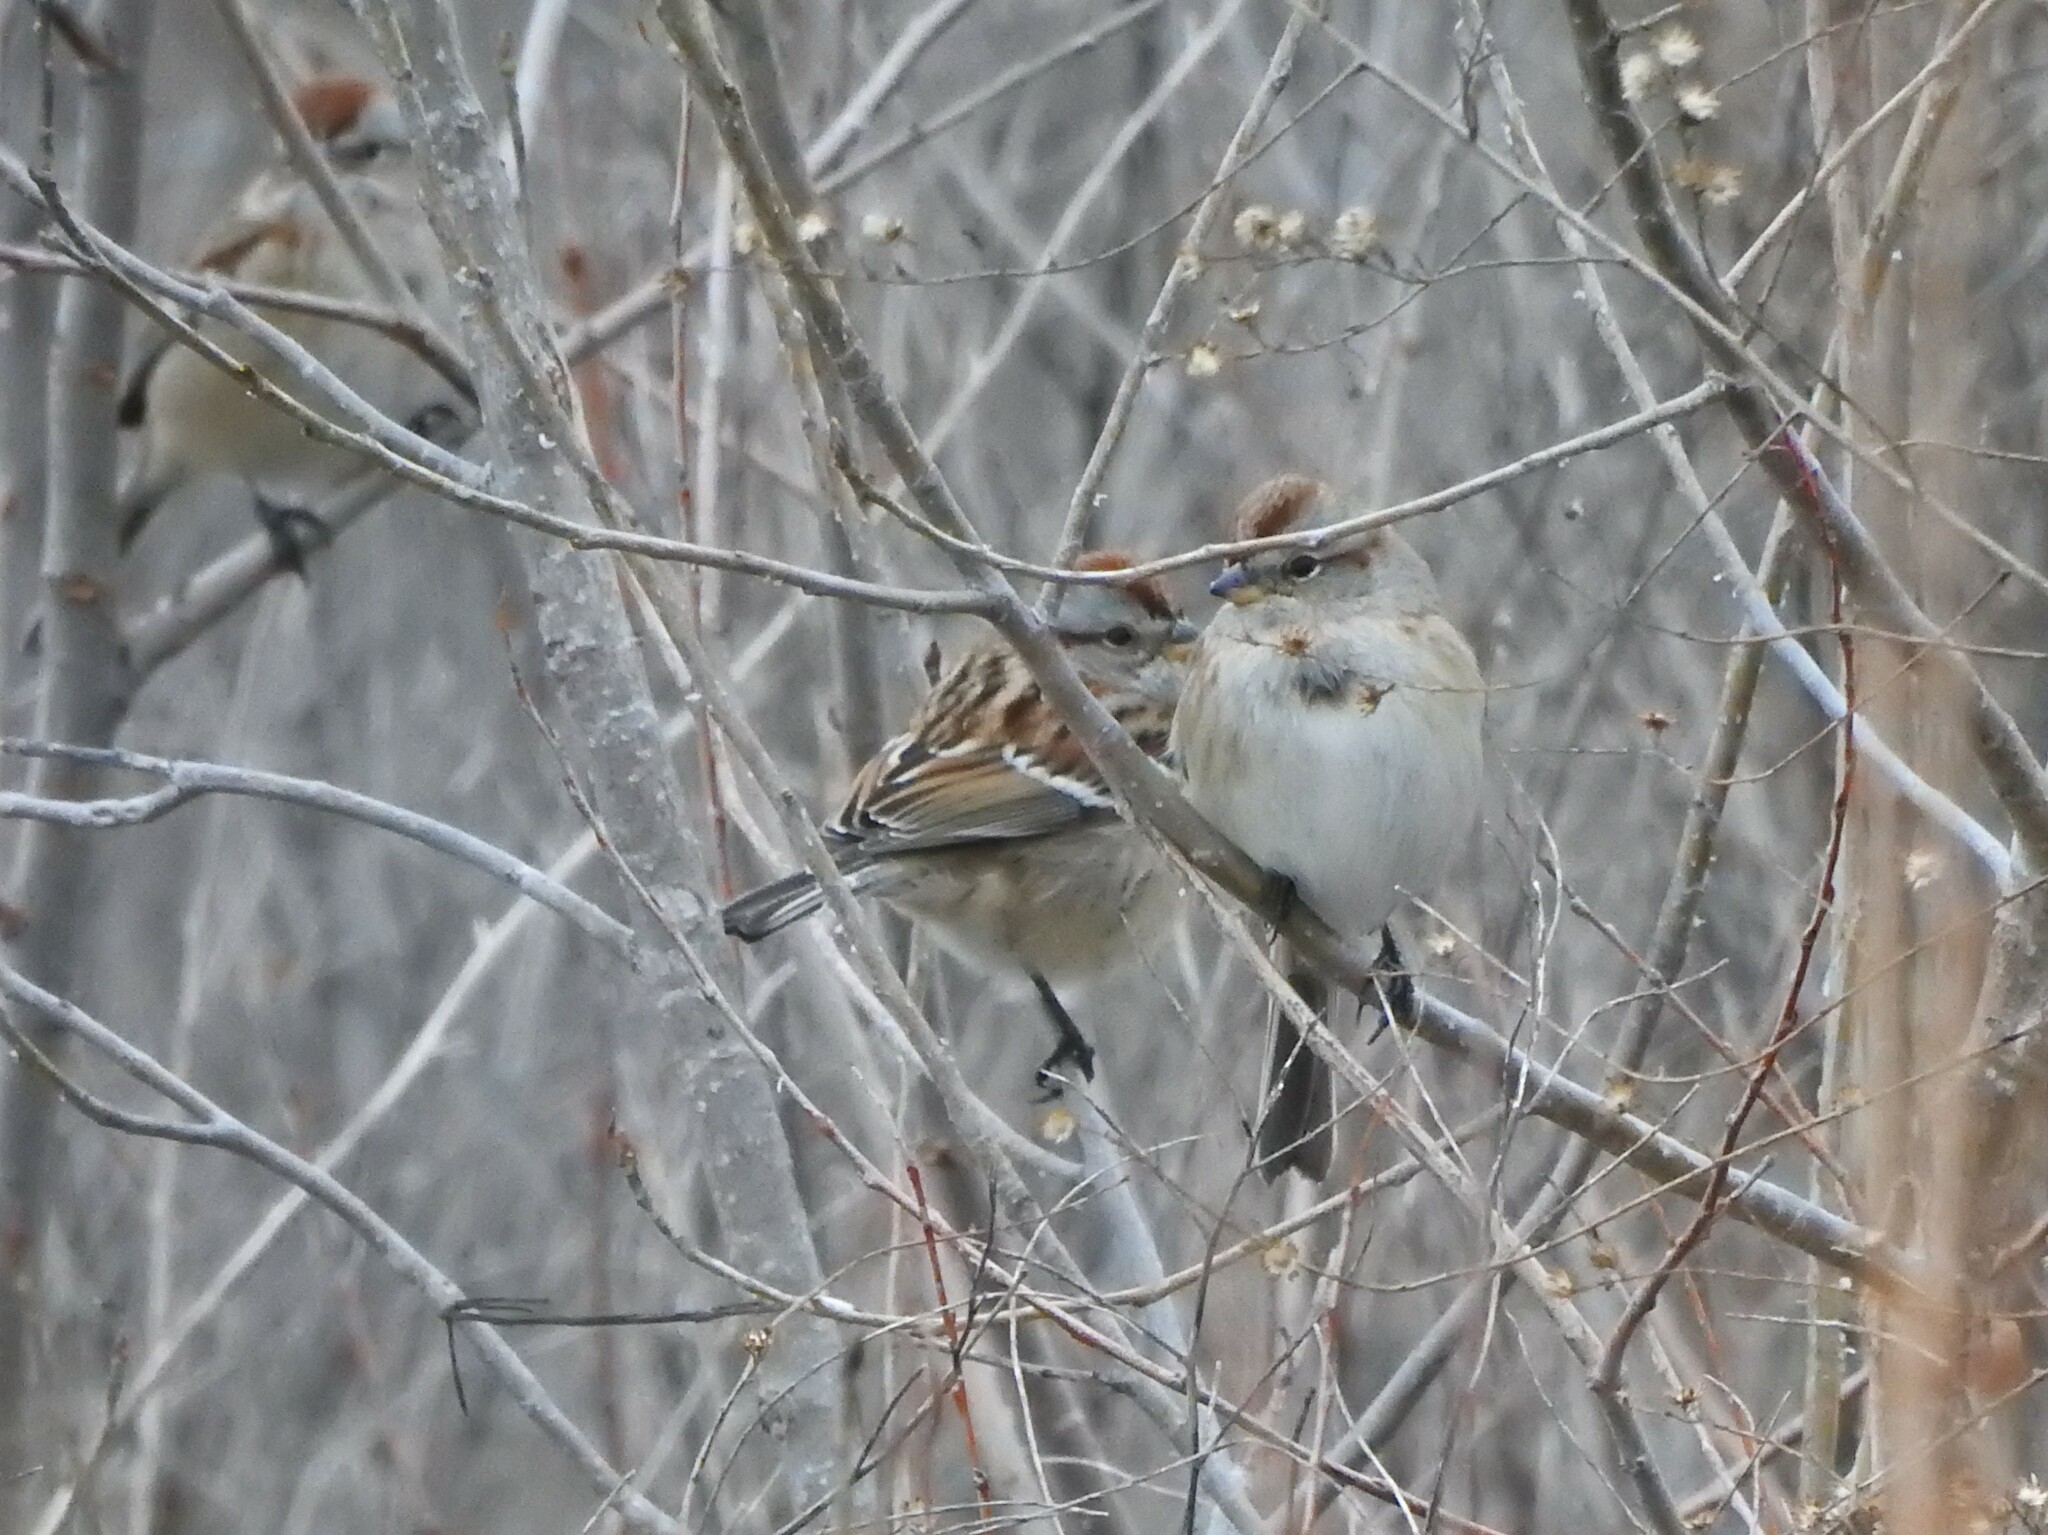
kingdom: Animalia
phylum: Chordata
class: Aves
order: Passeriformes
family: Passerellidae
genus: Spizelloides
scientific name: Spizelloides arborea
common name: American tree sparrow
